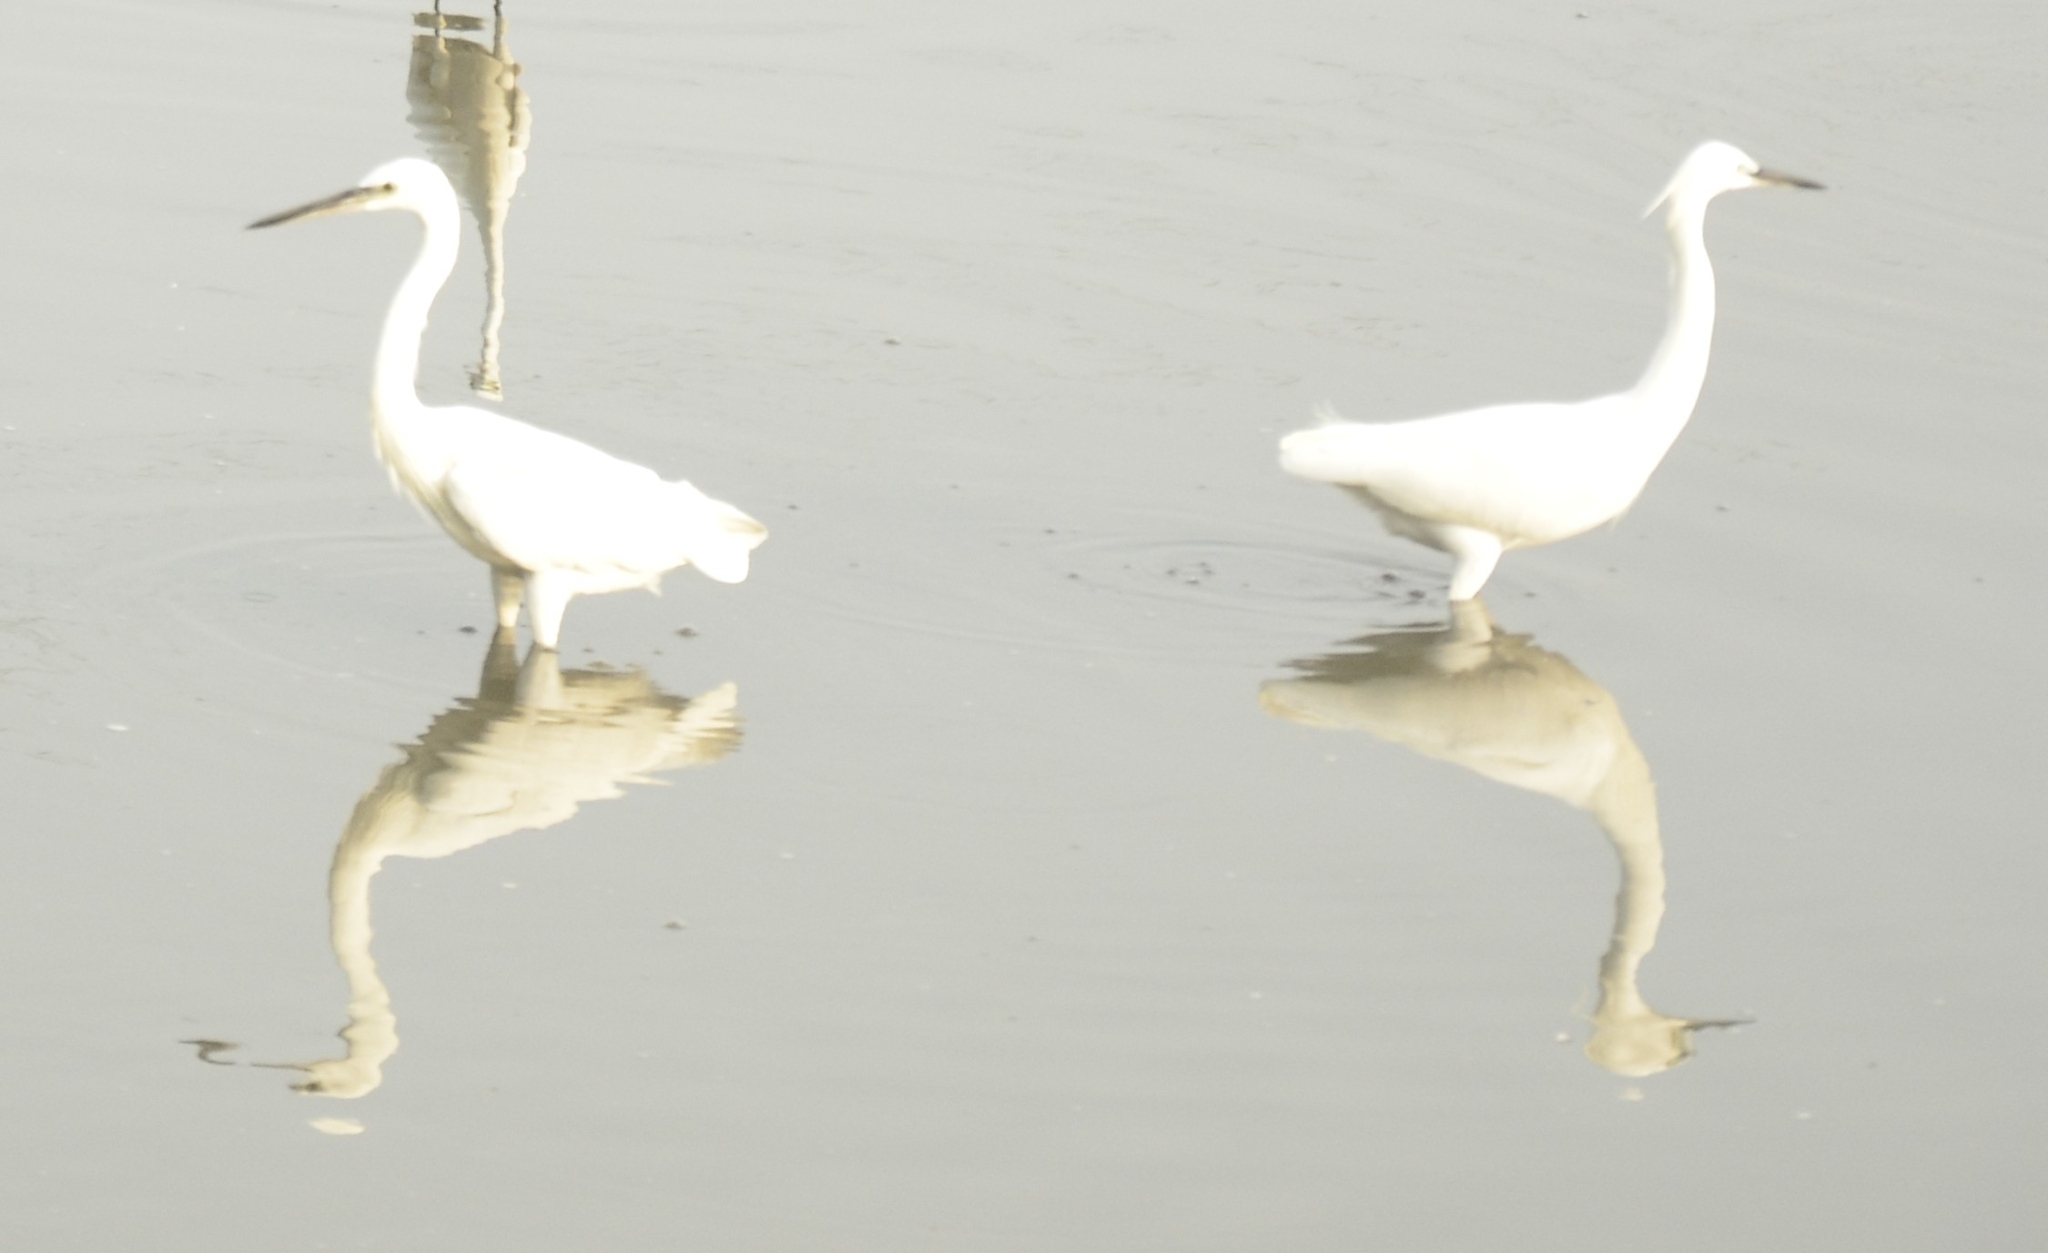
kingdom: Animalia
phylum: Chordata
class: Aves
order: Pelecaniformes
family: Ardeidae
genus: Egretta
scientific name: Egretta garzetta
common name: Little egret
